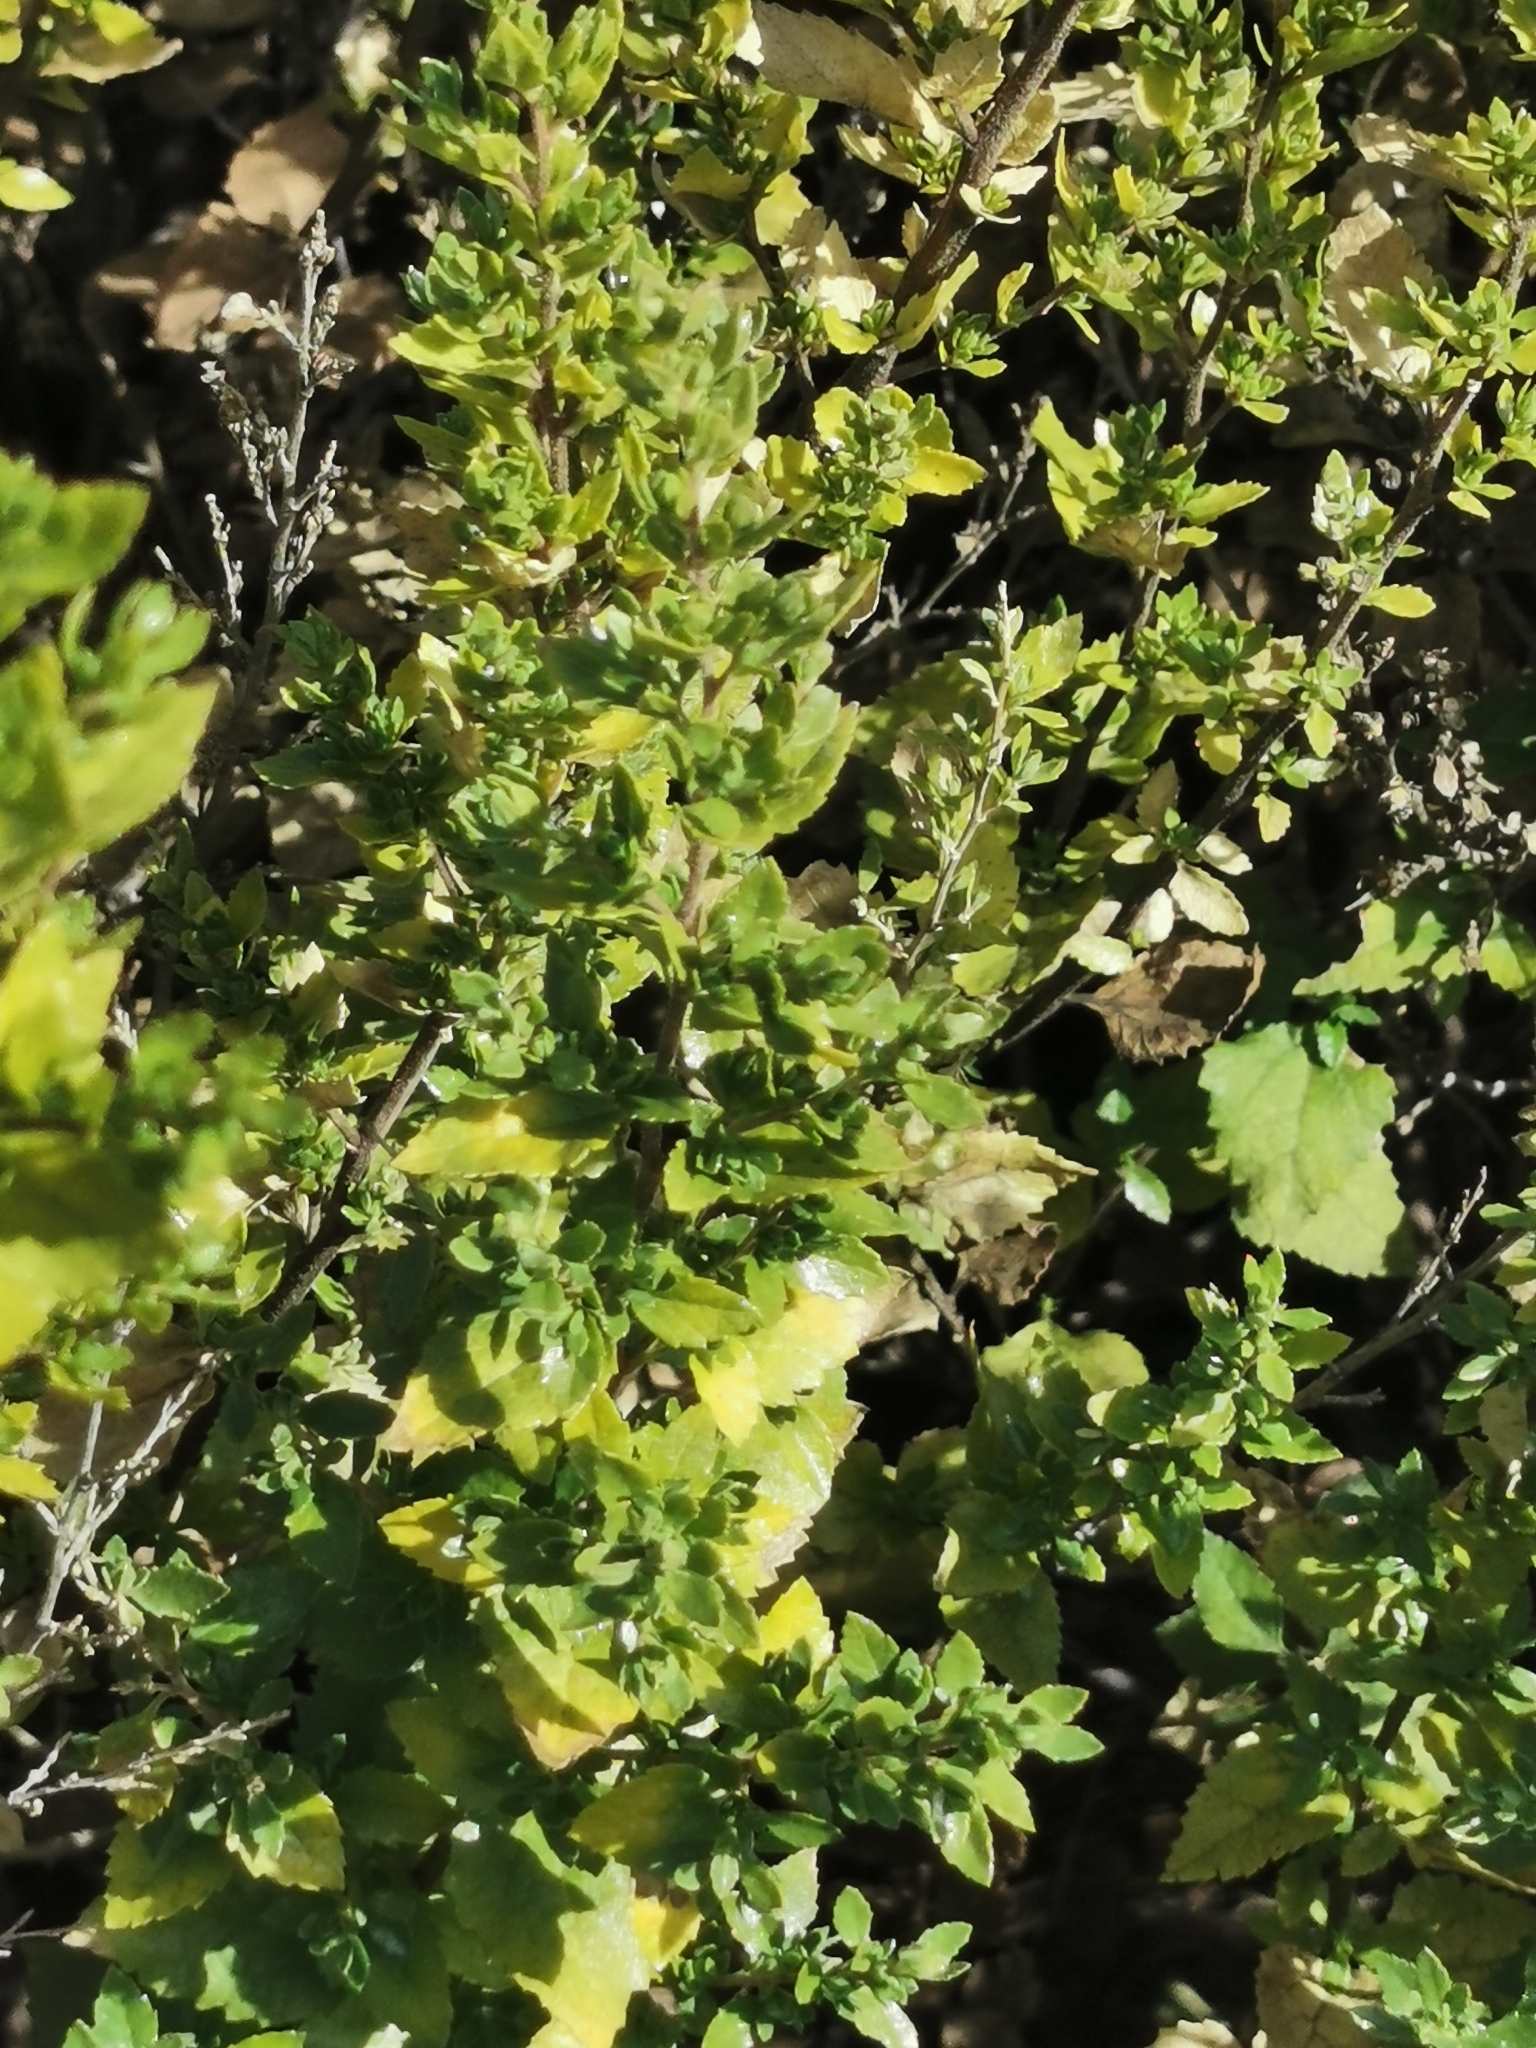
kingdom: Plantae
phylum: Tracheophyta
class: Magnoliopsida
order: Asterales
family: Asteraceae
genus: Brickellia
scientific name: Brickellia veronicifolia
